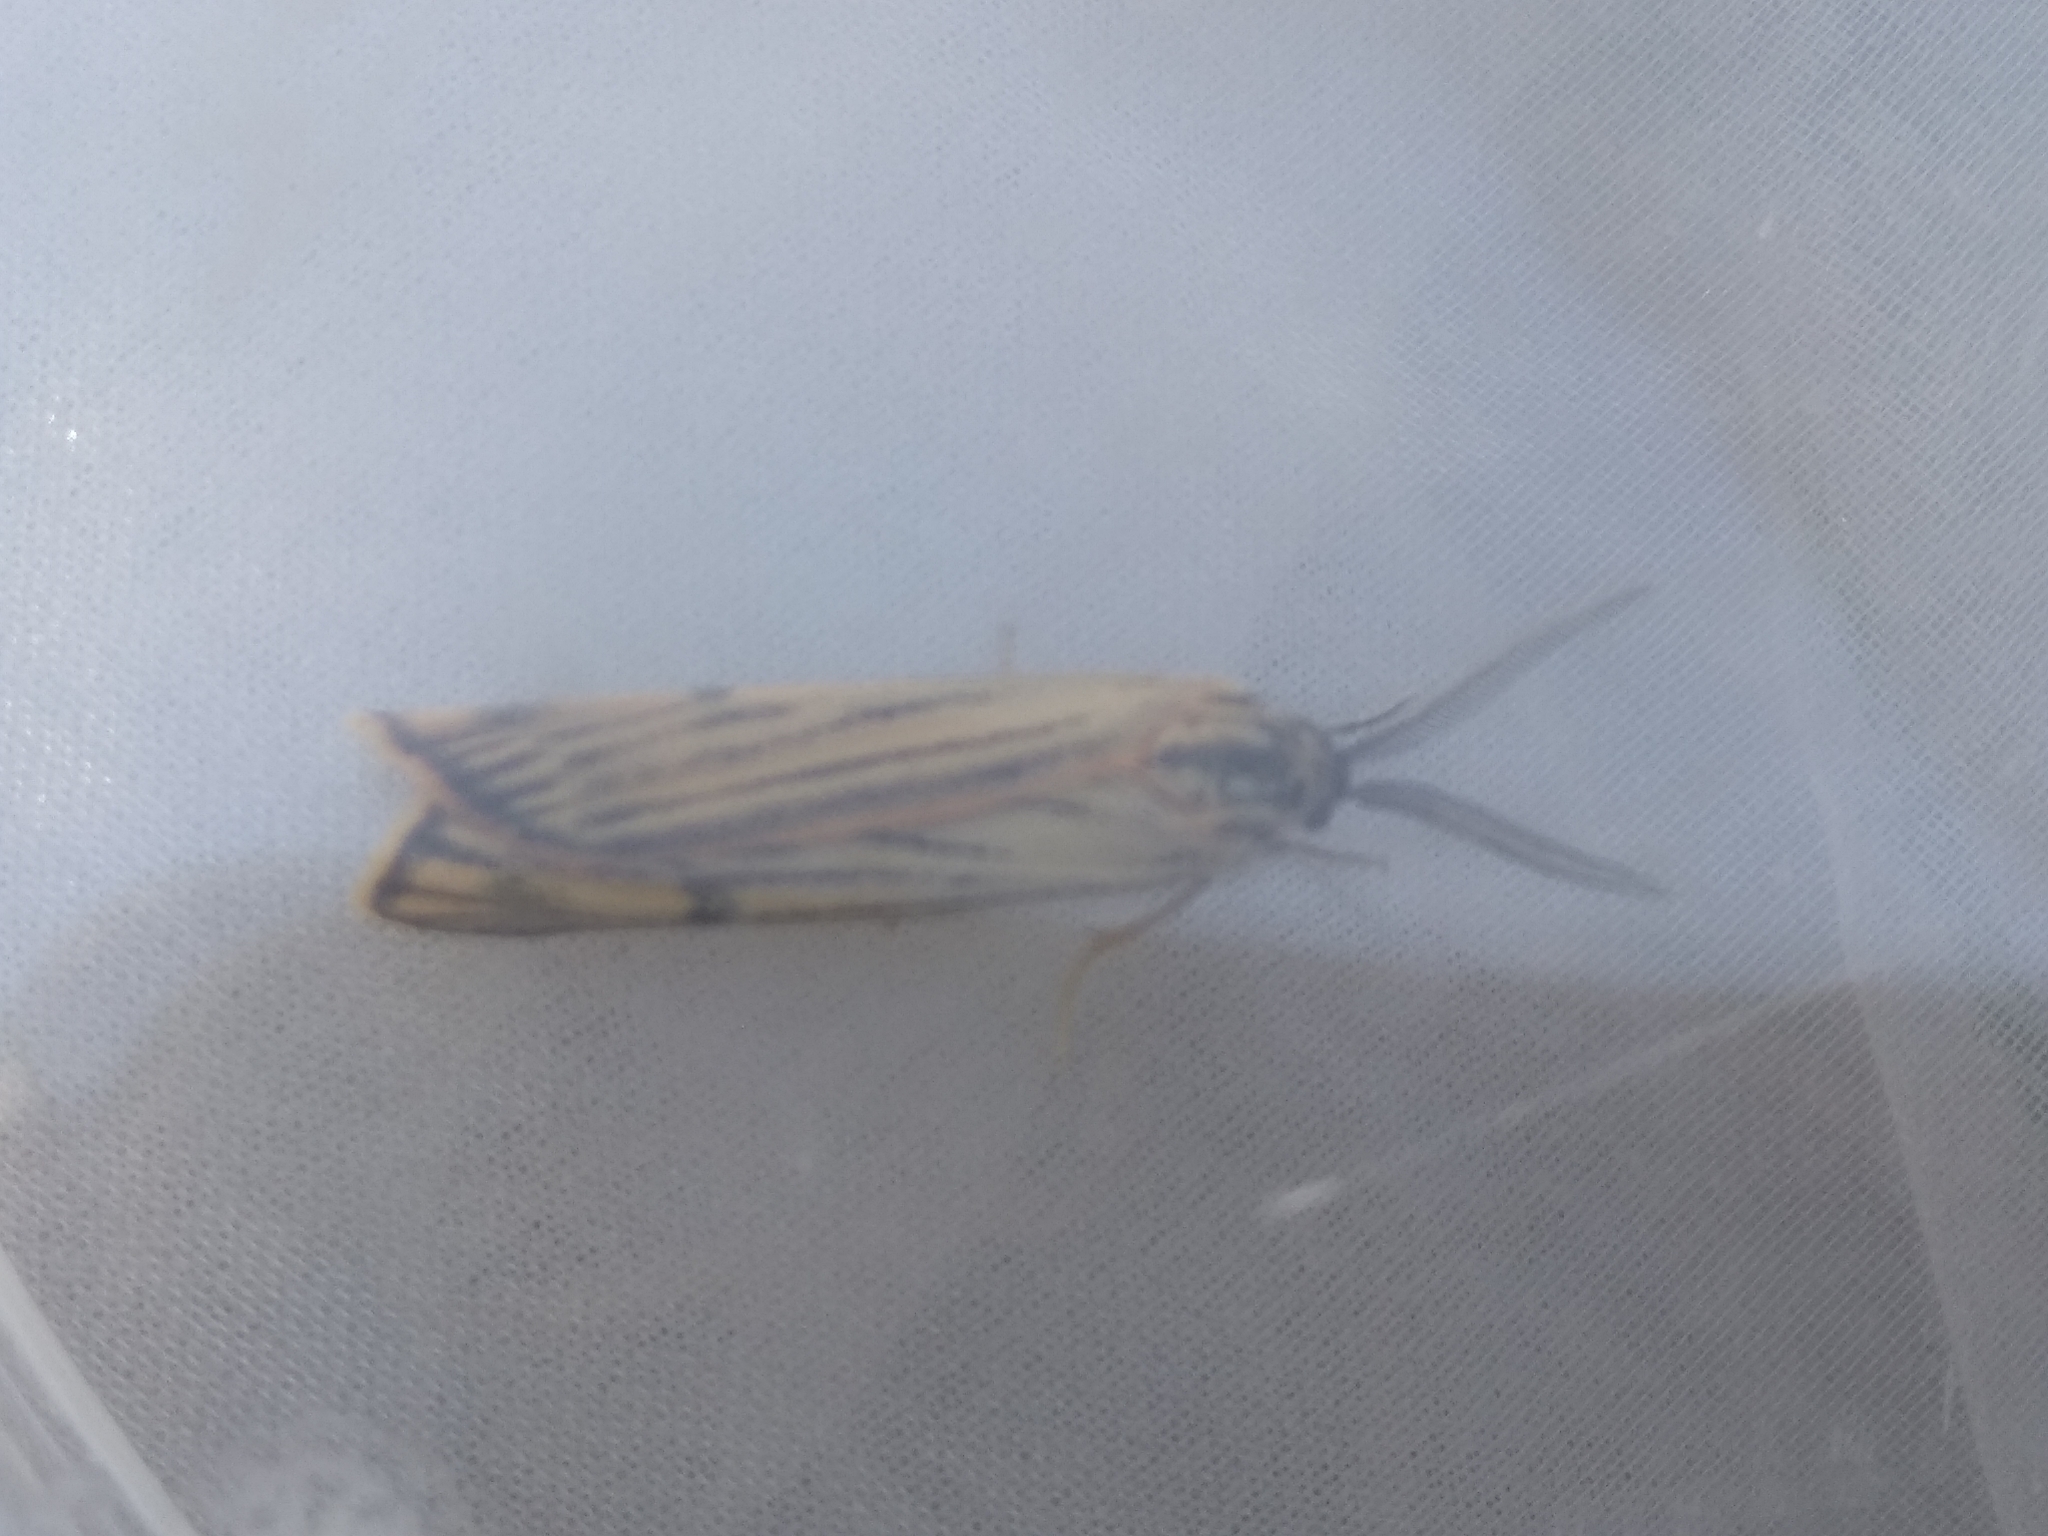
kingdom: Animalia
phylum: Arthropoda
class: Insecta
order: Lepidoptera
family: Erebidae
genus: Coscinia
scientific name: Coscinia Spiris striata
